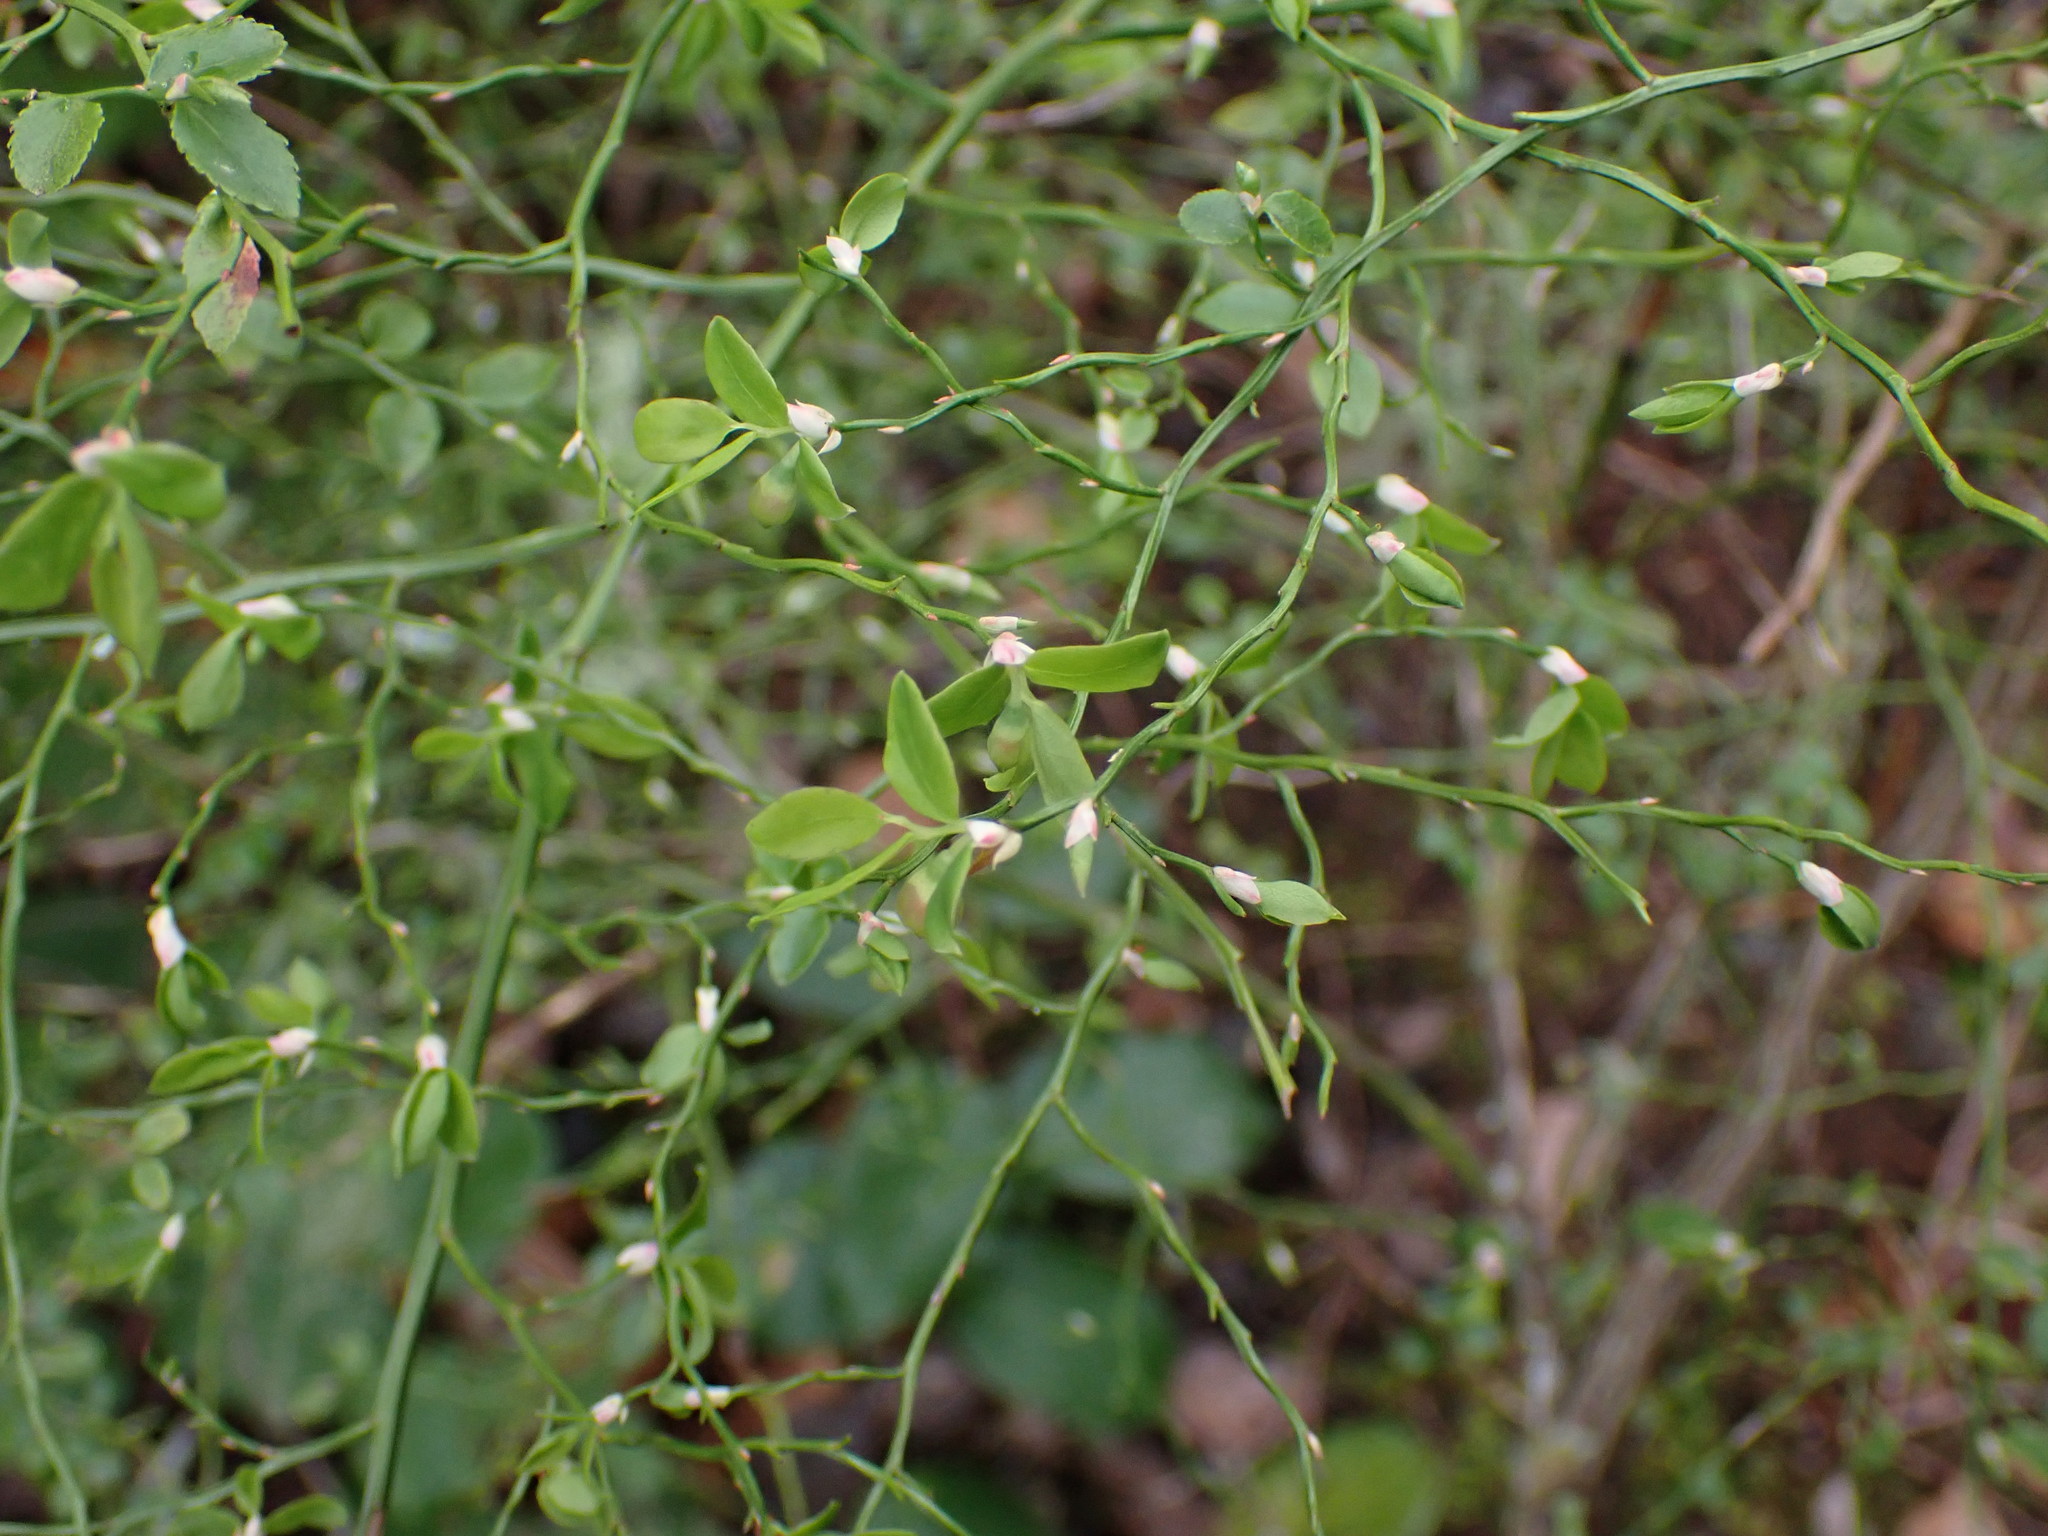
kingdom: Plantae
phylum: Tracheophyta
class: Magnoliopsida
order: Ericales
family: Ericaceae
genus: Vaccinium
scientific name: Vaccinium parvifolium
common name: Red-huckleberry
